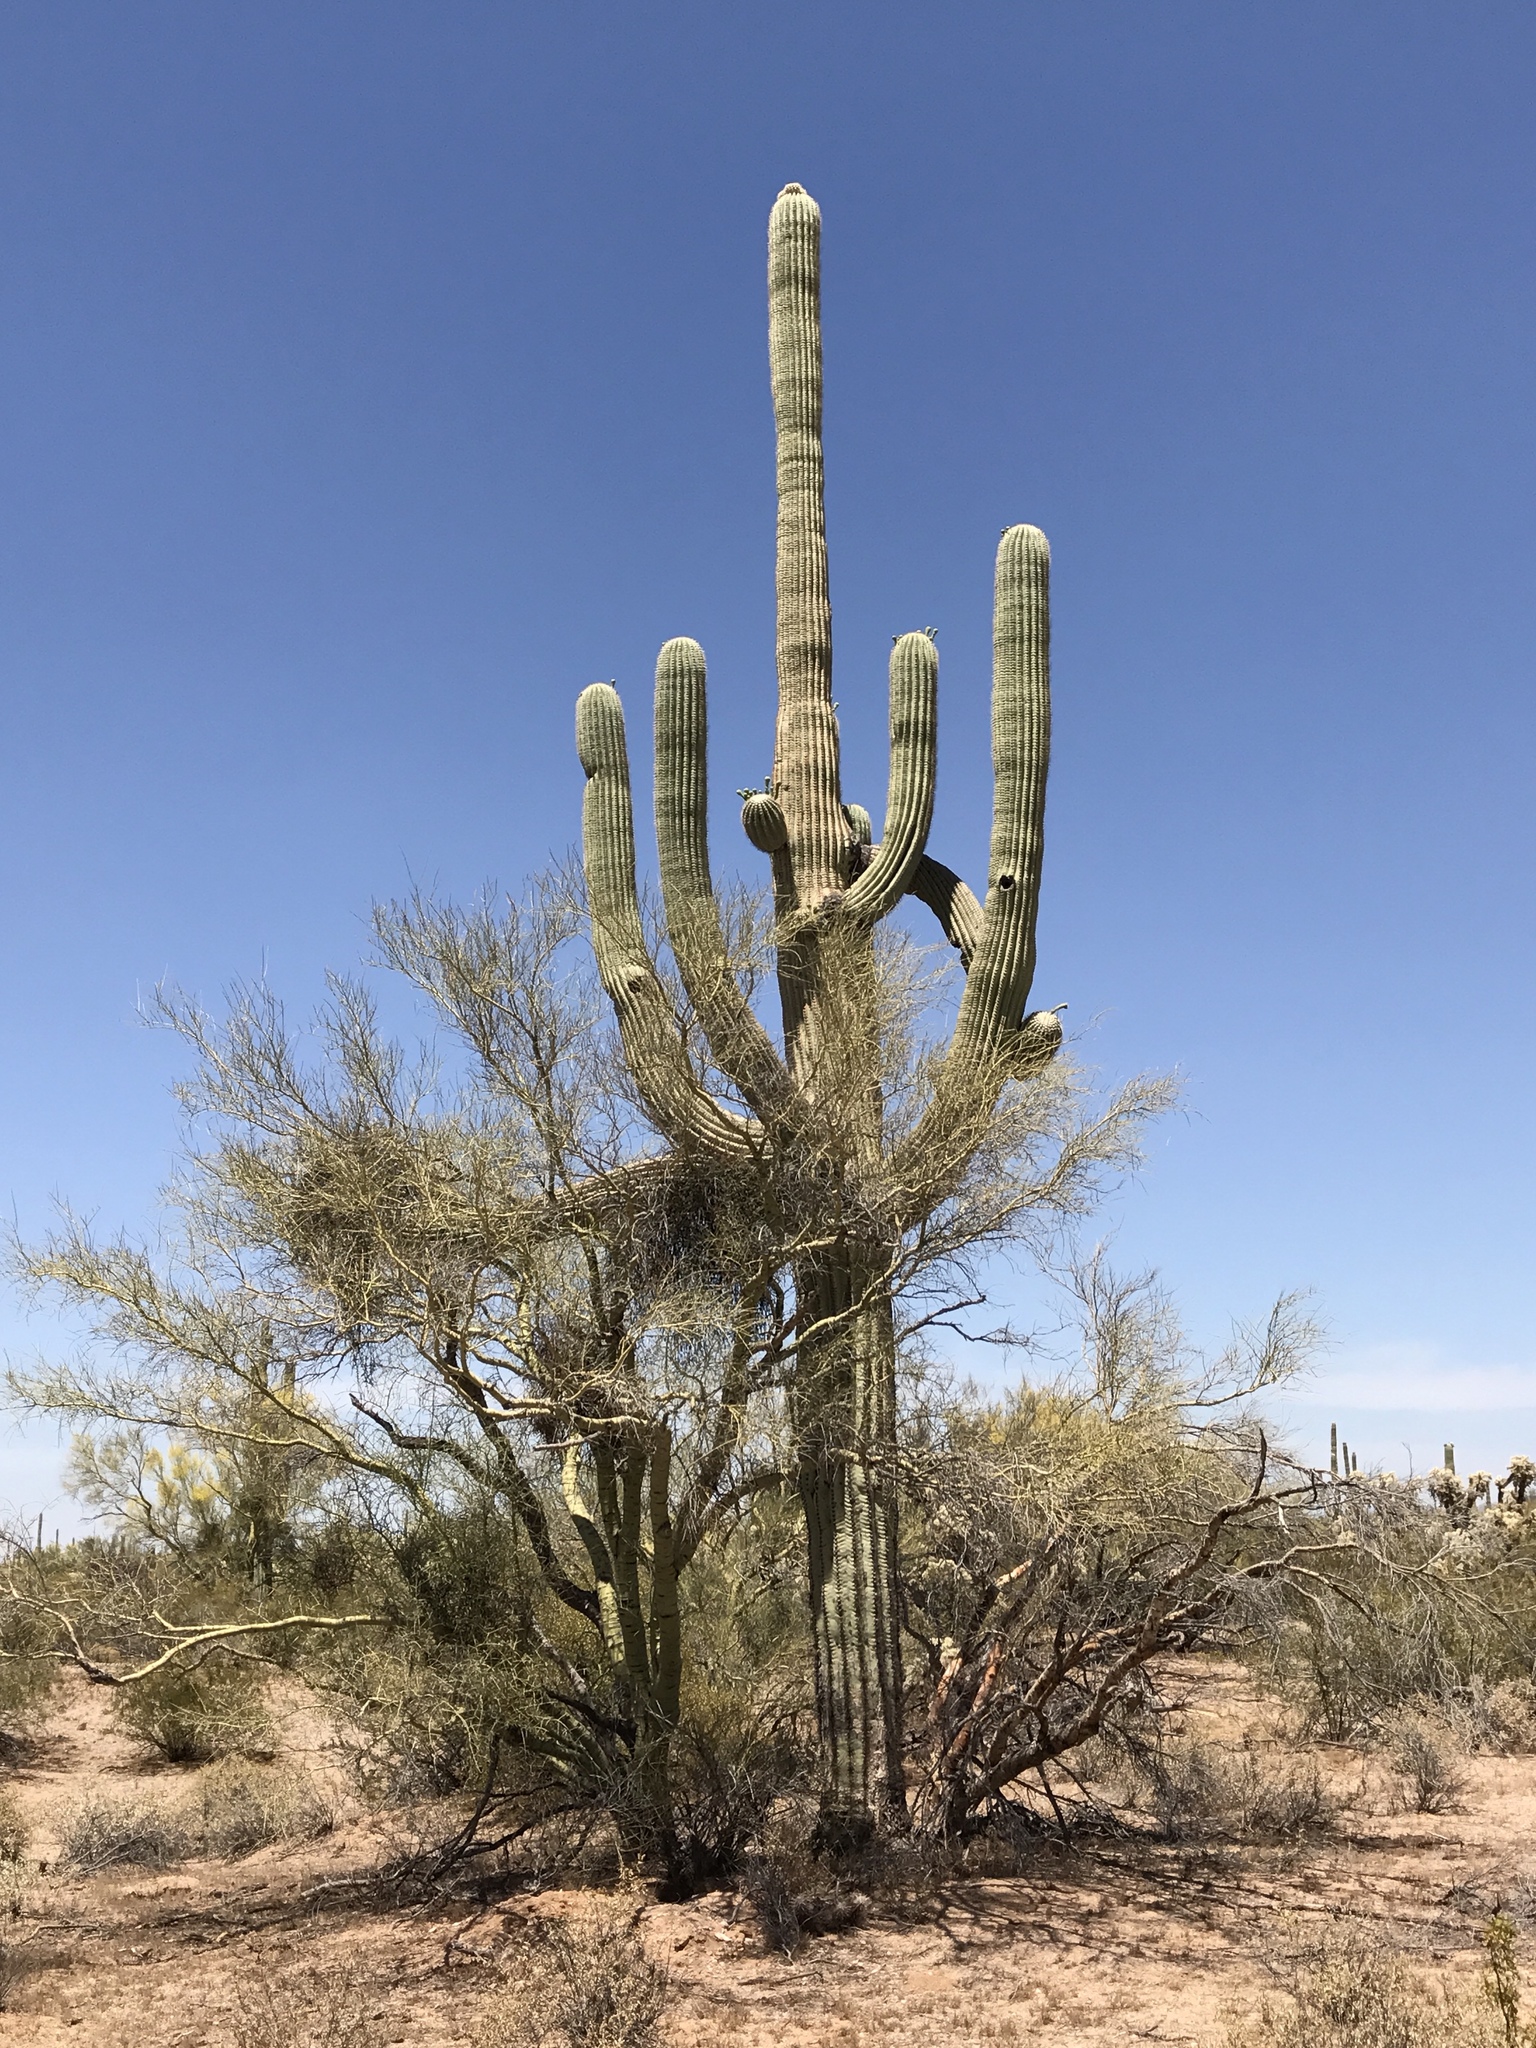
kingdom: Plantae
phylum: Tracheophyta
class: Magnoliopsida
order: Caryophyllales
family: Cactaceae
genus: Carnegiea
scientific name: Carnegiea gigantea
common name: Saguaro
